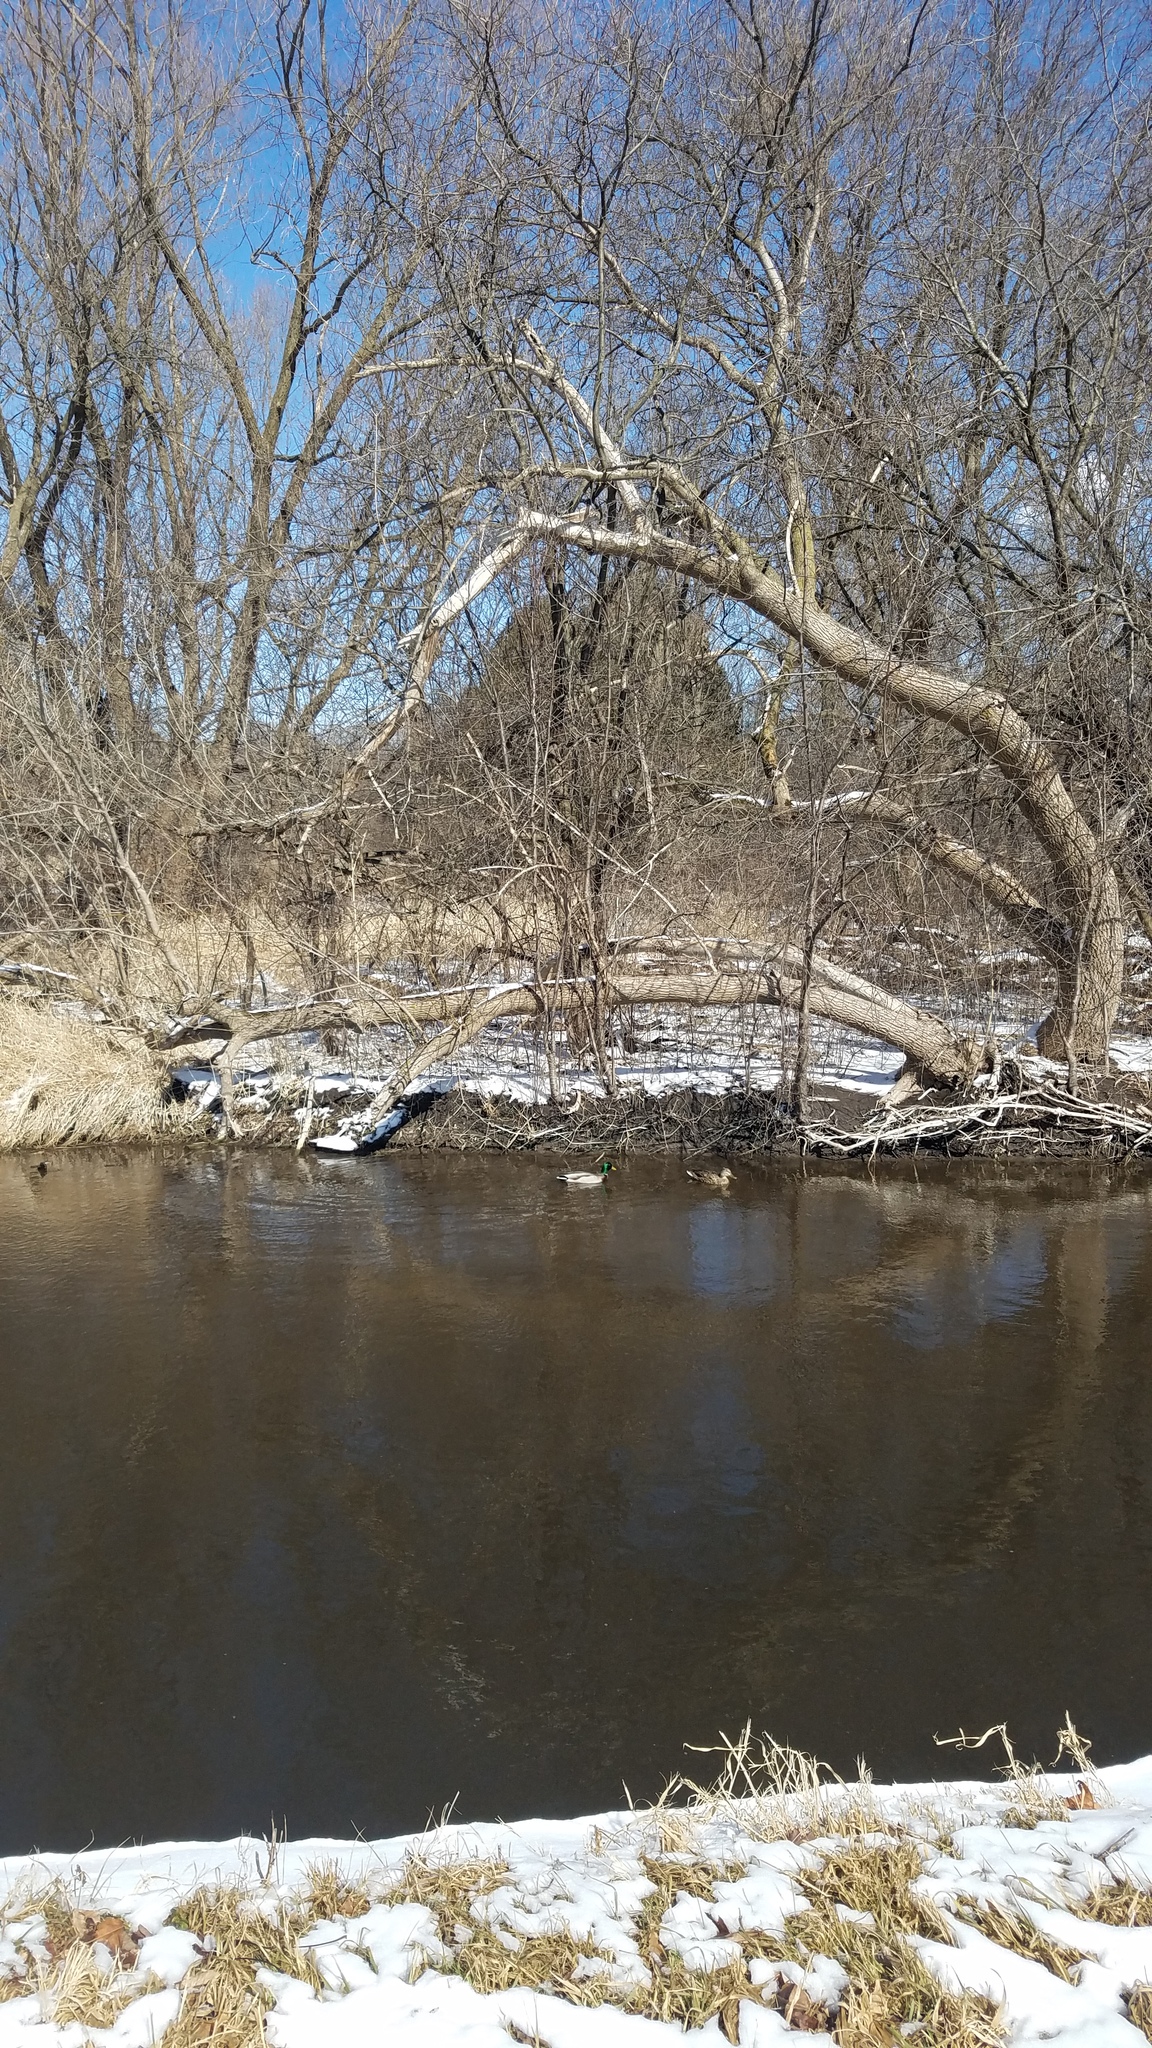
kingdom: Animalia
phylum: Chordata
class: Aves
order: Anseriformes
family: Anatidae
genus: Anas
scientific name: Anas platyrhynchos
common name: Mallard
